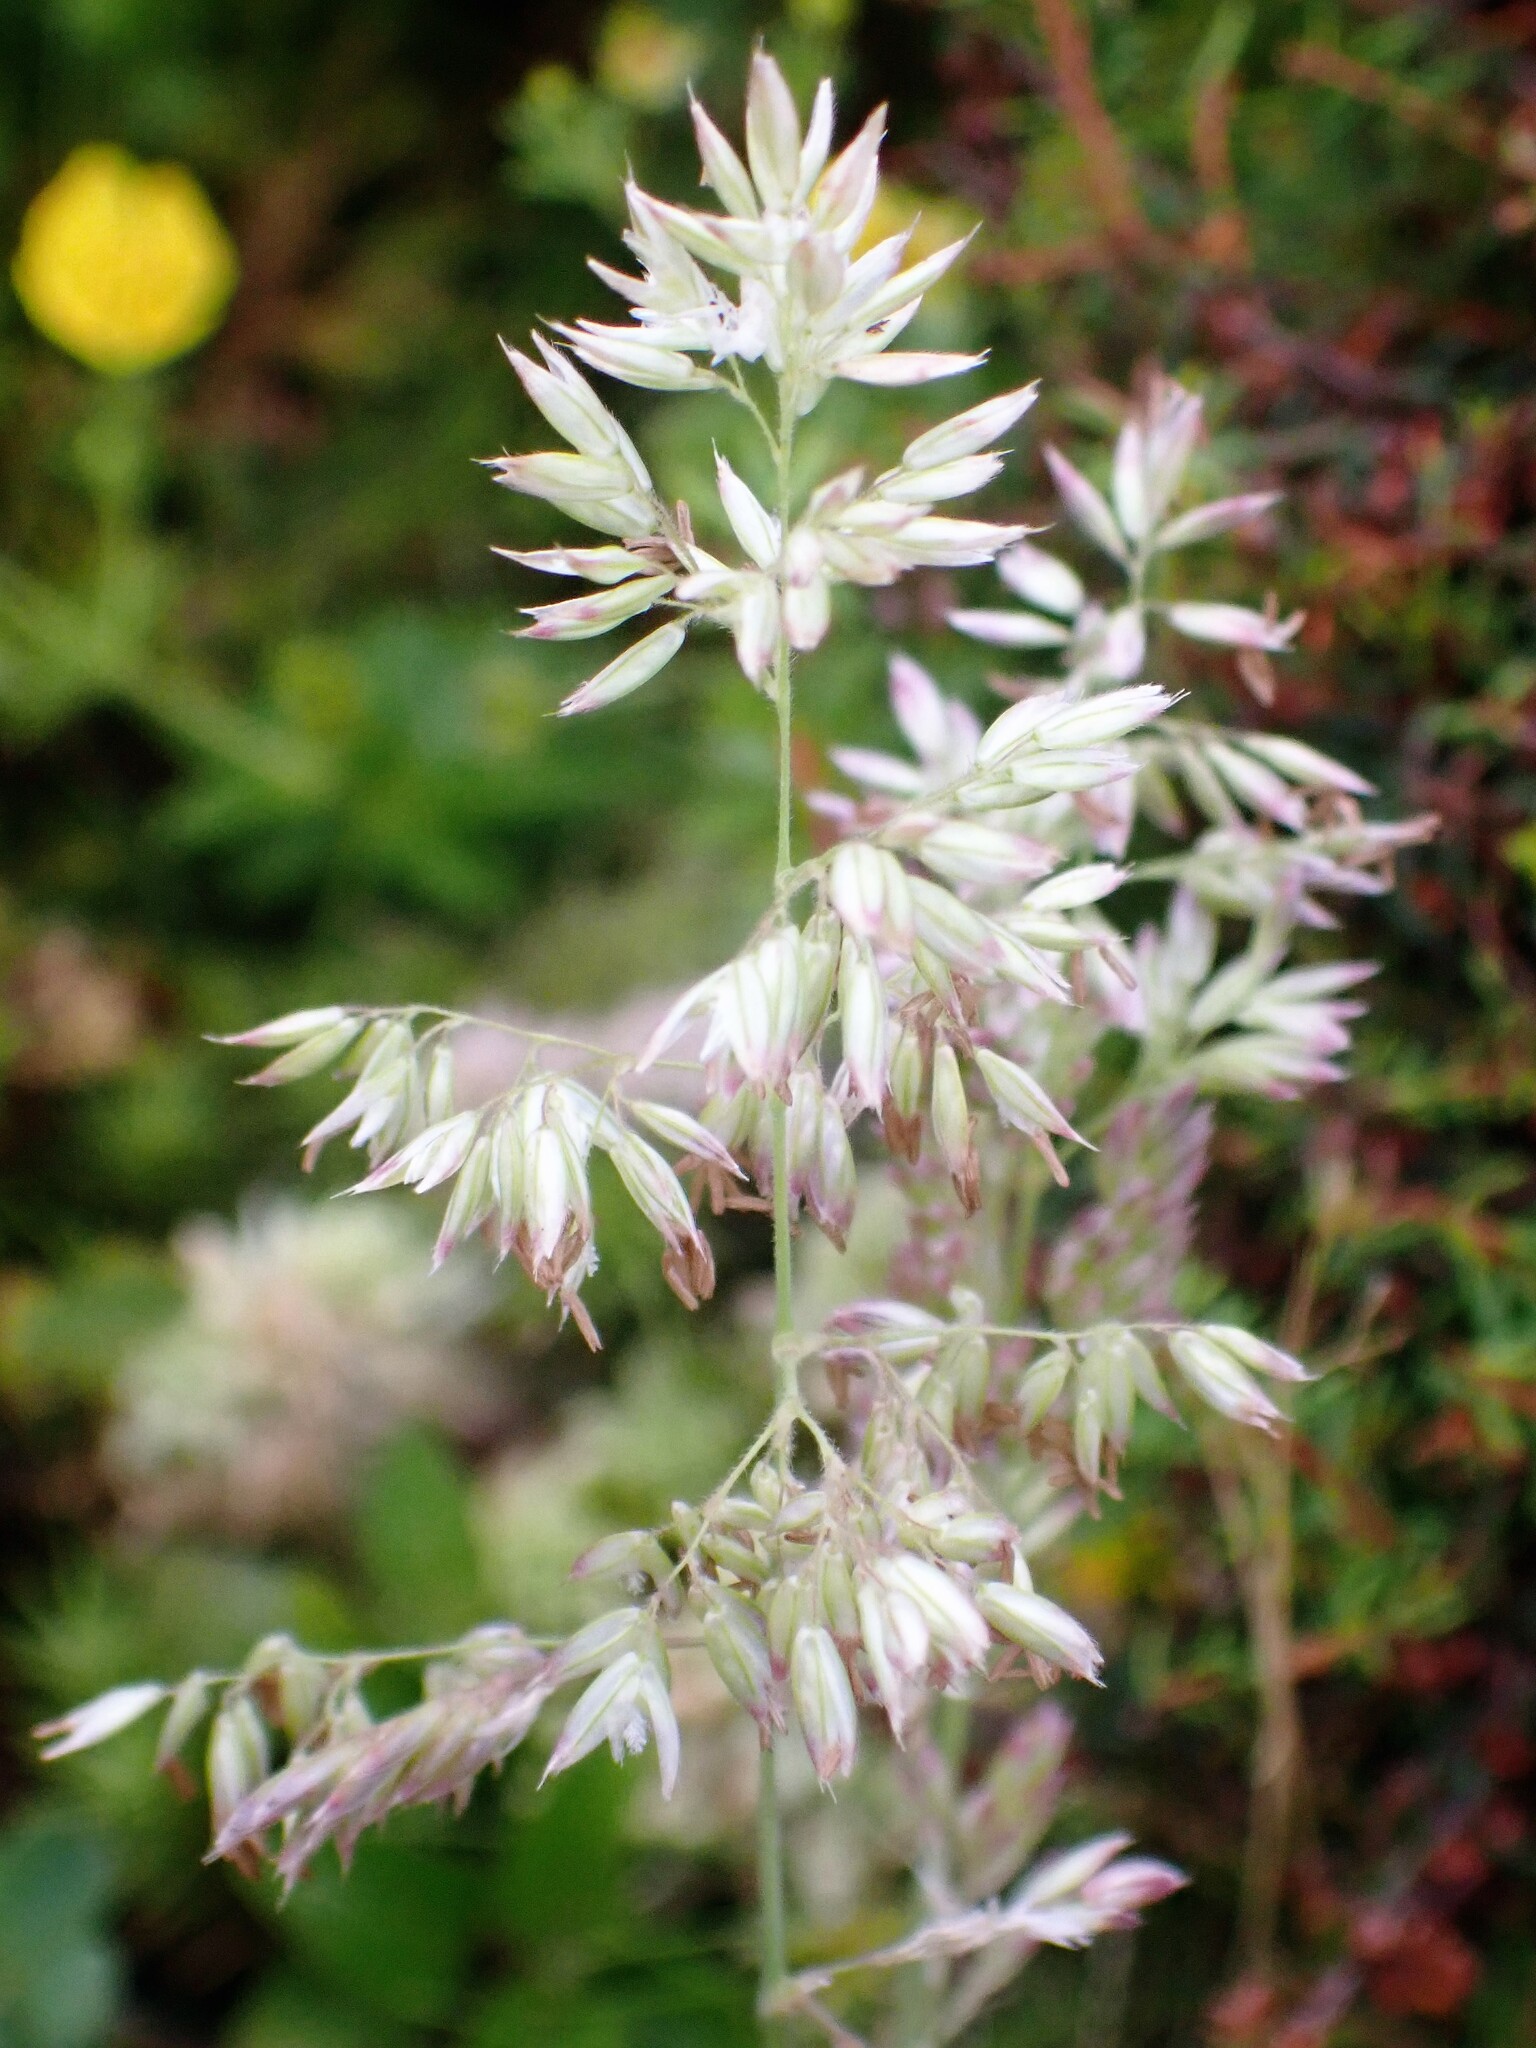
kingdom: Plantae
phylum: Tracheophyta
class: Liliopsida
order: Poales
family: Poaceae
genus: Holcus
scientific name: Holcus rigidus
